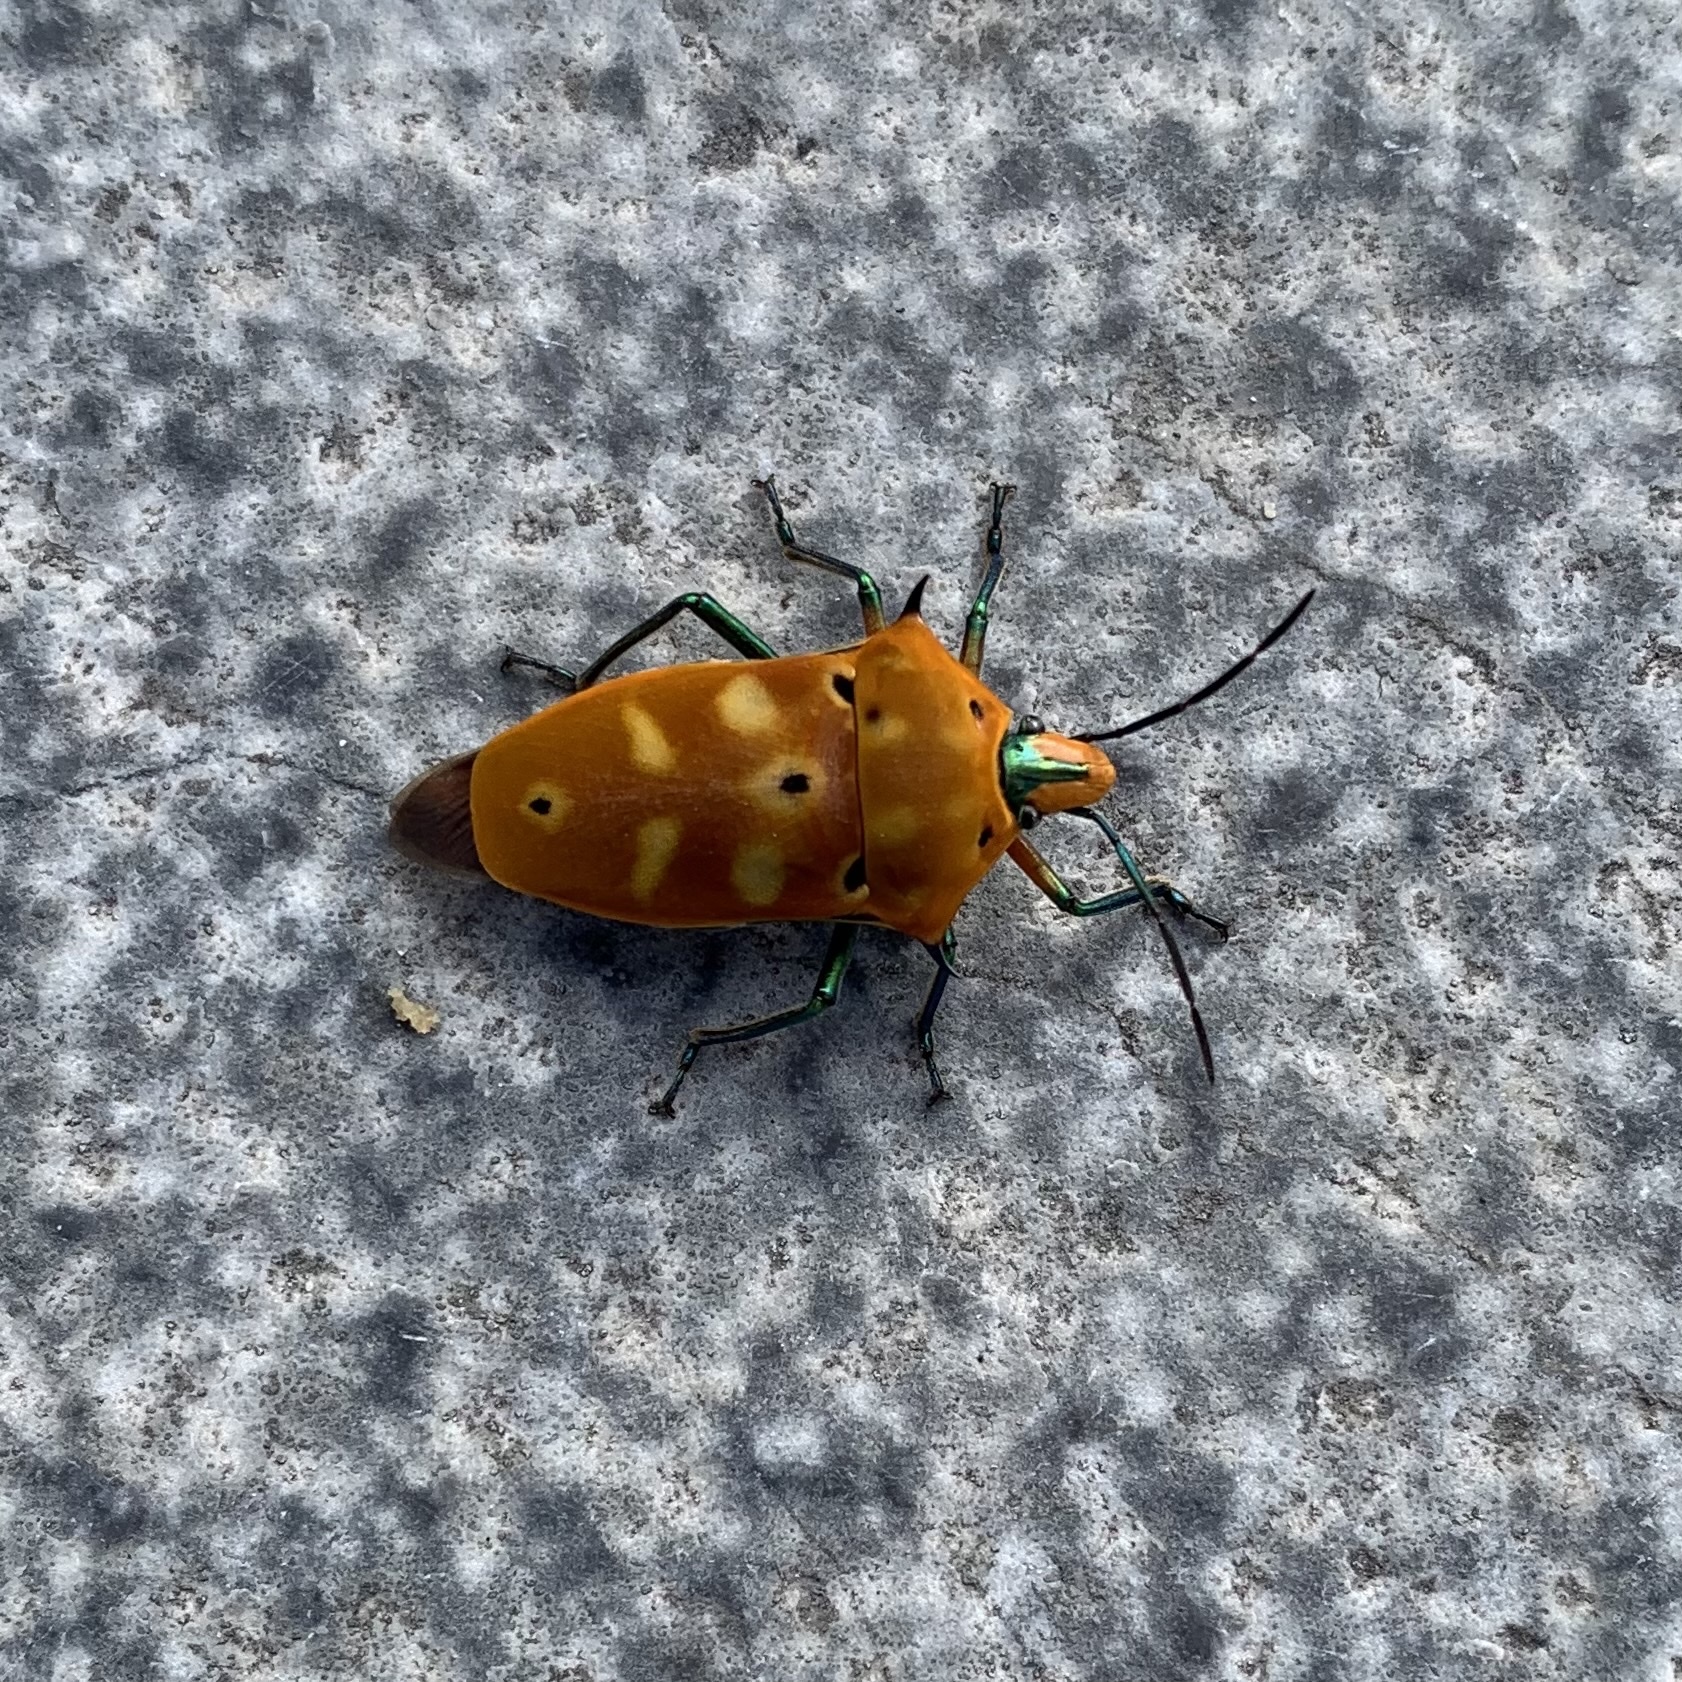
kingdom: Animalia
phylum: Arthropoda
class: Insecta
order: Hemiptera
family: Scutelleridae
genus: Cantao
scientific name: Cantao ocellatus
